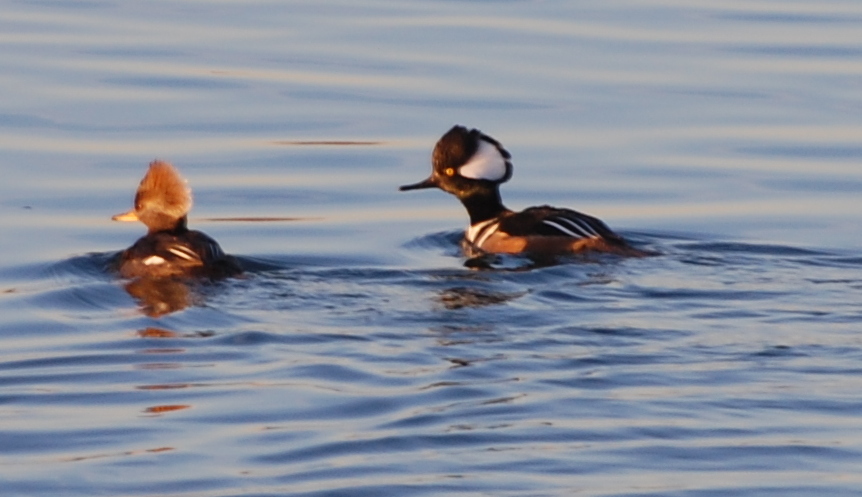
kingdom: Animalia
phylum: Chordata
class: Aves
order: Anseriformes
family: Anatidae
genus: Lophodytes
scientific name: Lophodytes cucullatus
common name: Hooded merganser
